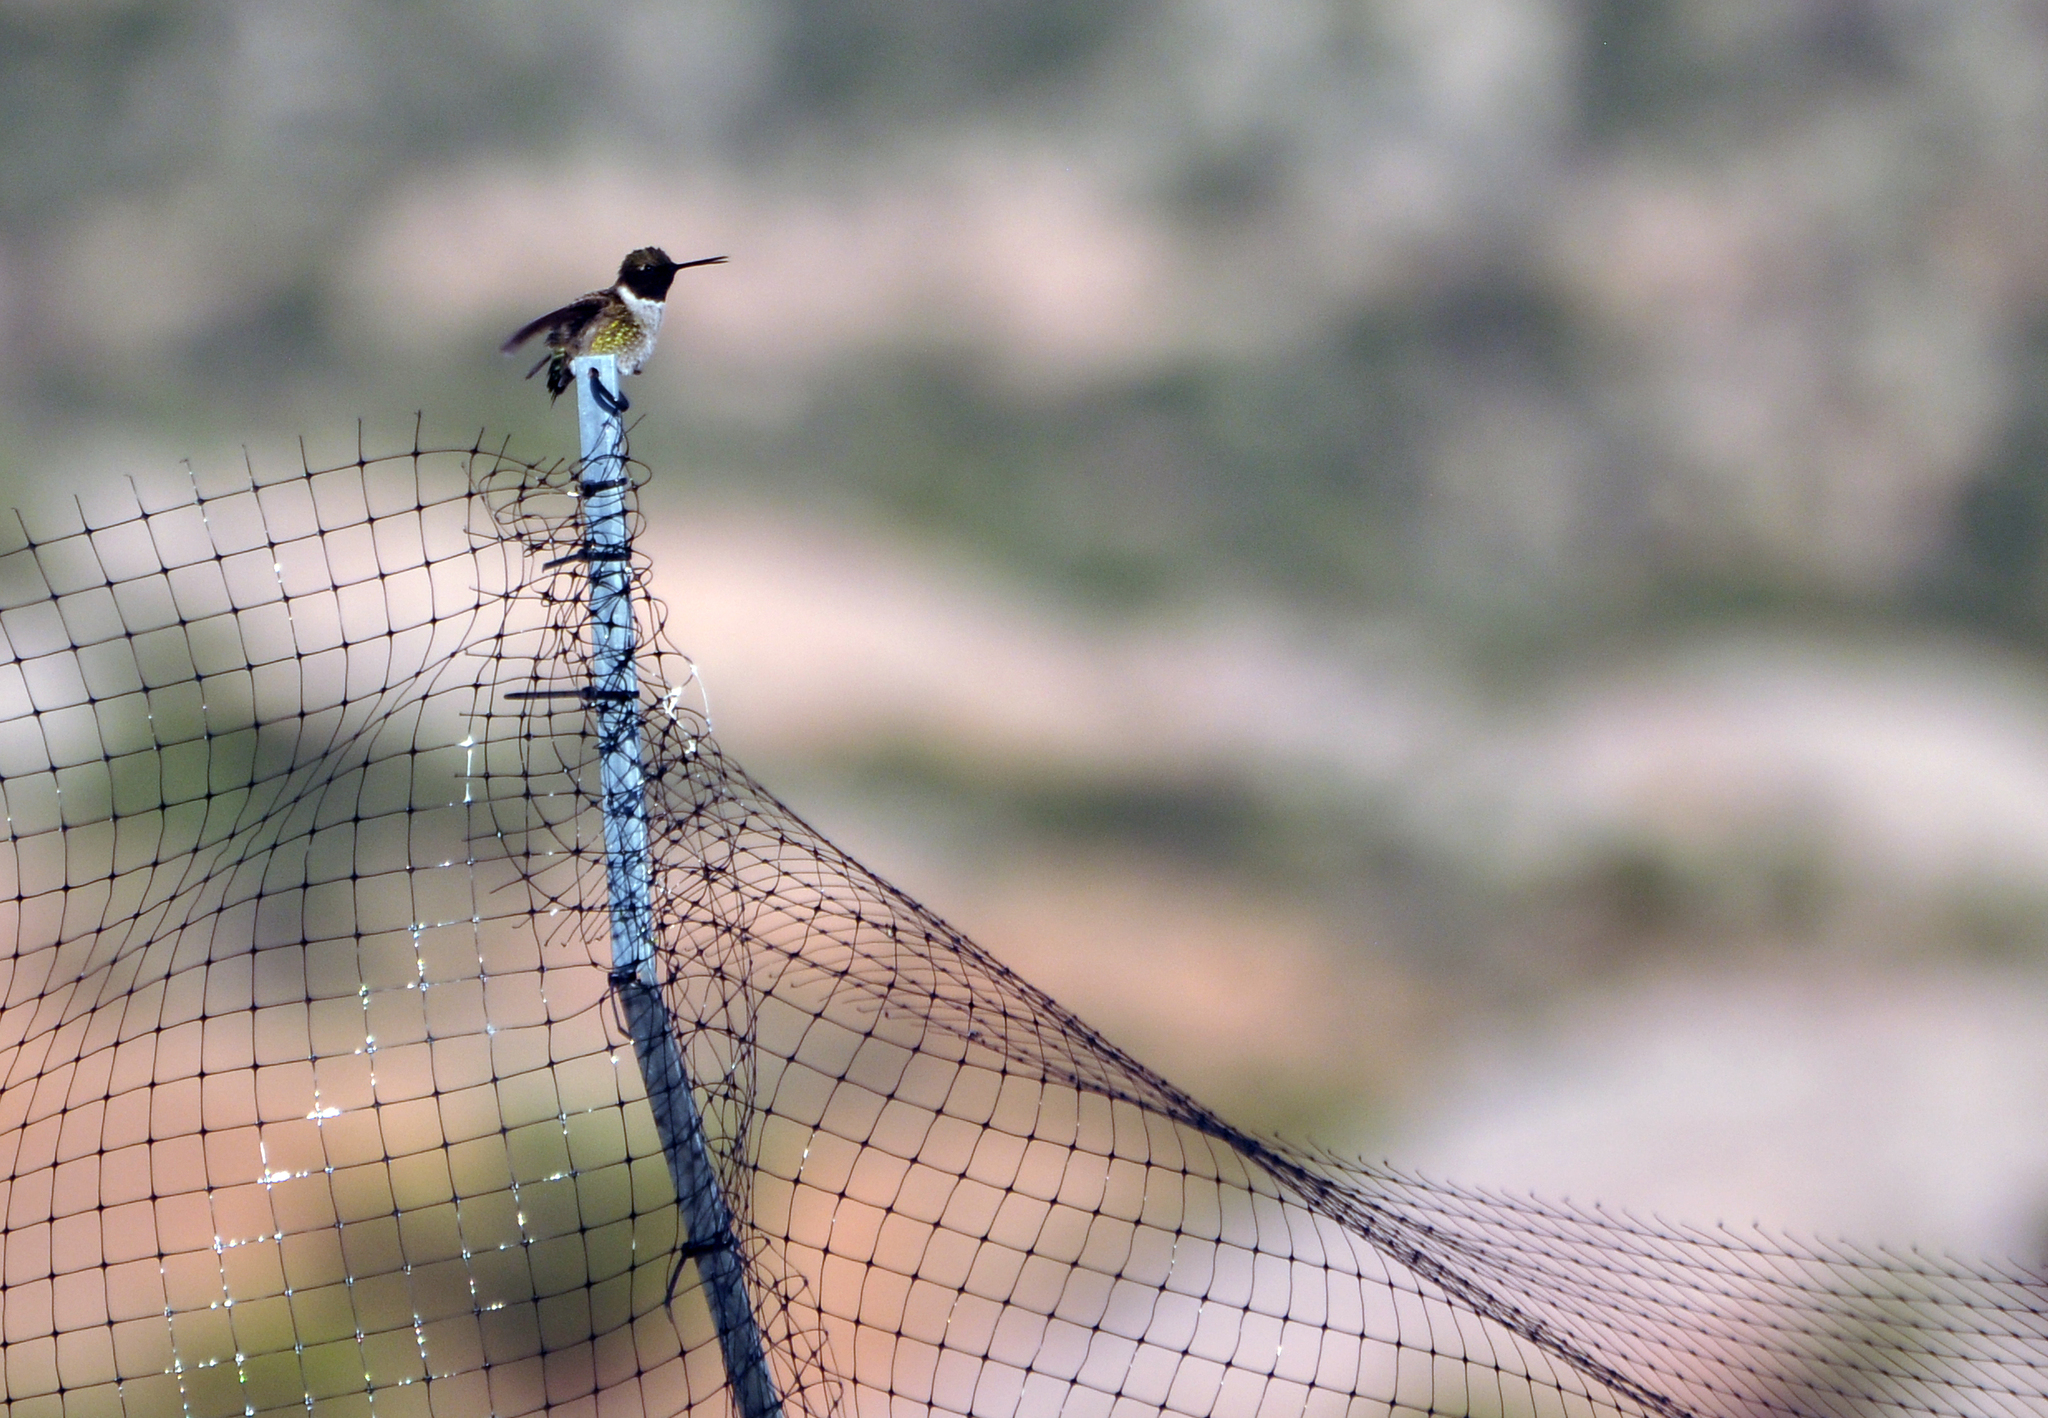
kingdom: Animalia
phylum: Chordata
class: Aves
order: Apodiformes
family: Trochilidae
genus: Archilochus
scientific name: Archilochus alexandri
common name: Black-chinned hummingbird
